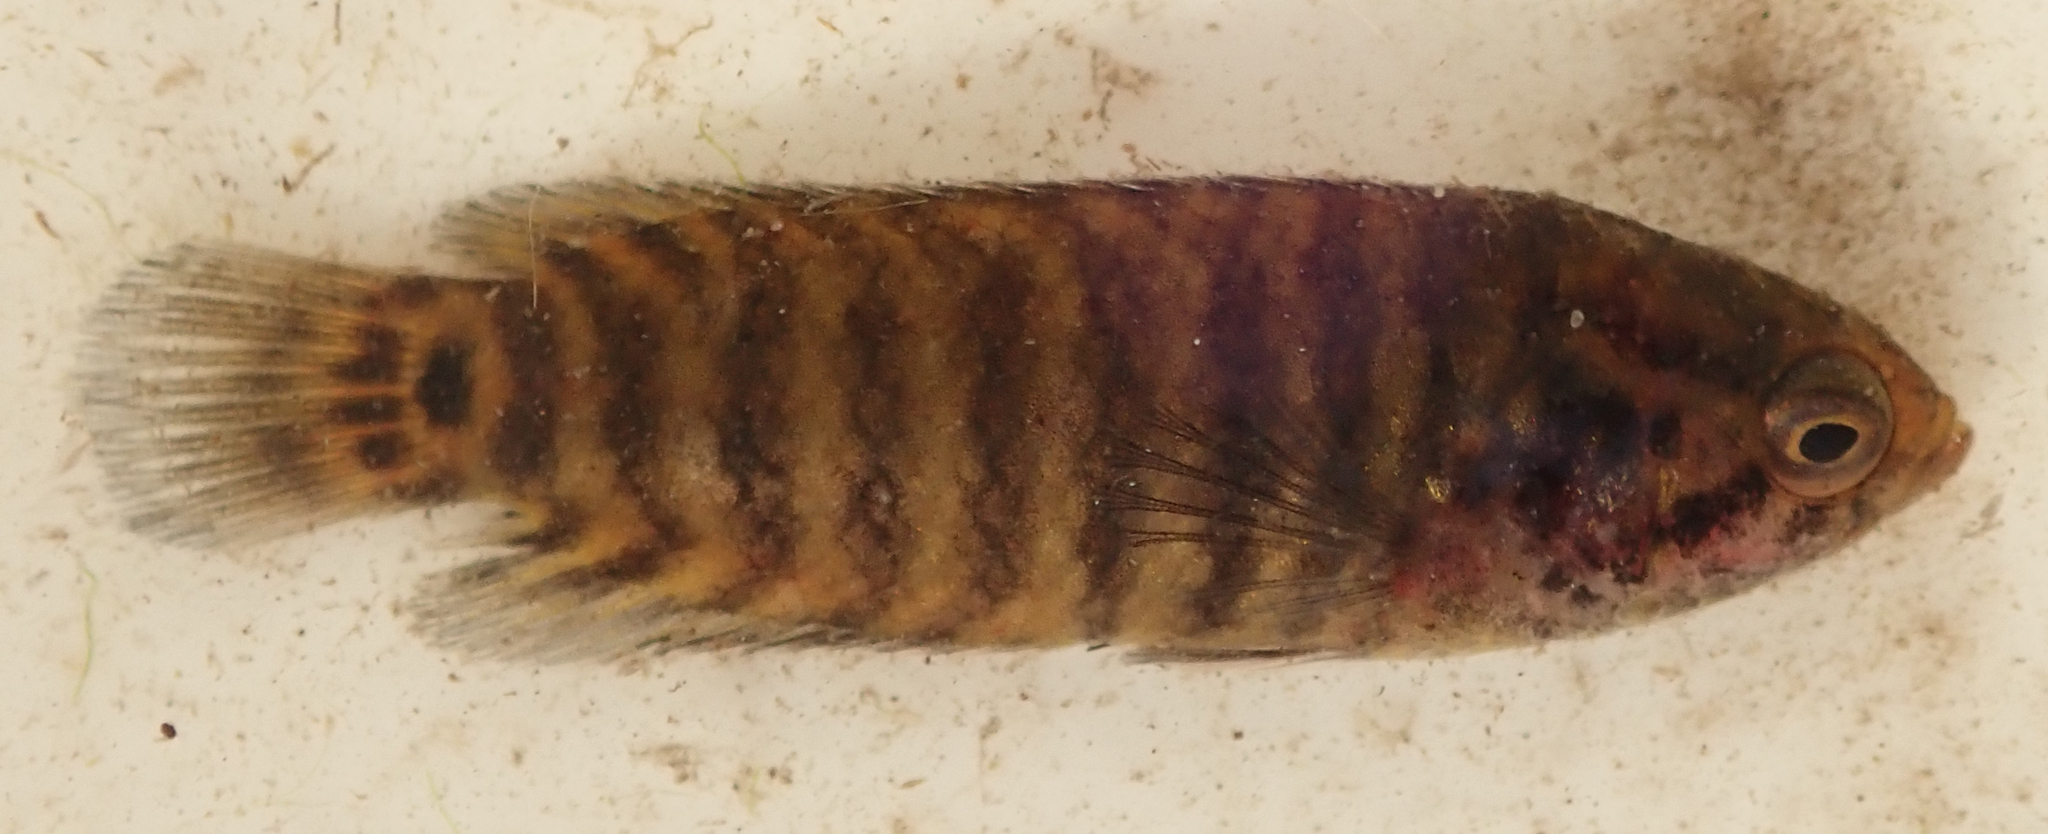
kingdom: Animalia
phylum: Chordata
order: Perciformes
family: Anabantidae
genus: Microctenopoma
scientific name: Microctenopoma intermedium
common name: Blackspot climbing perch
